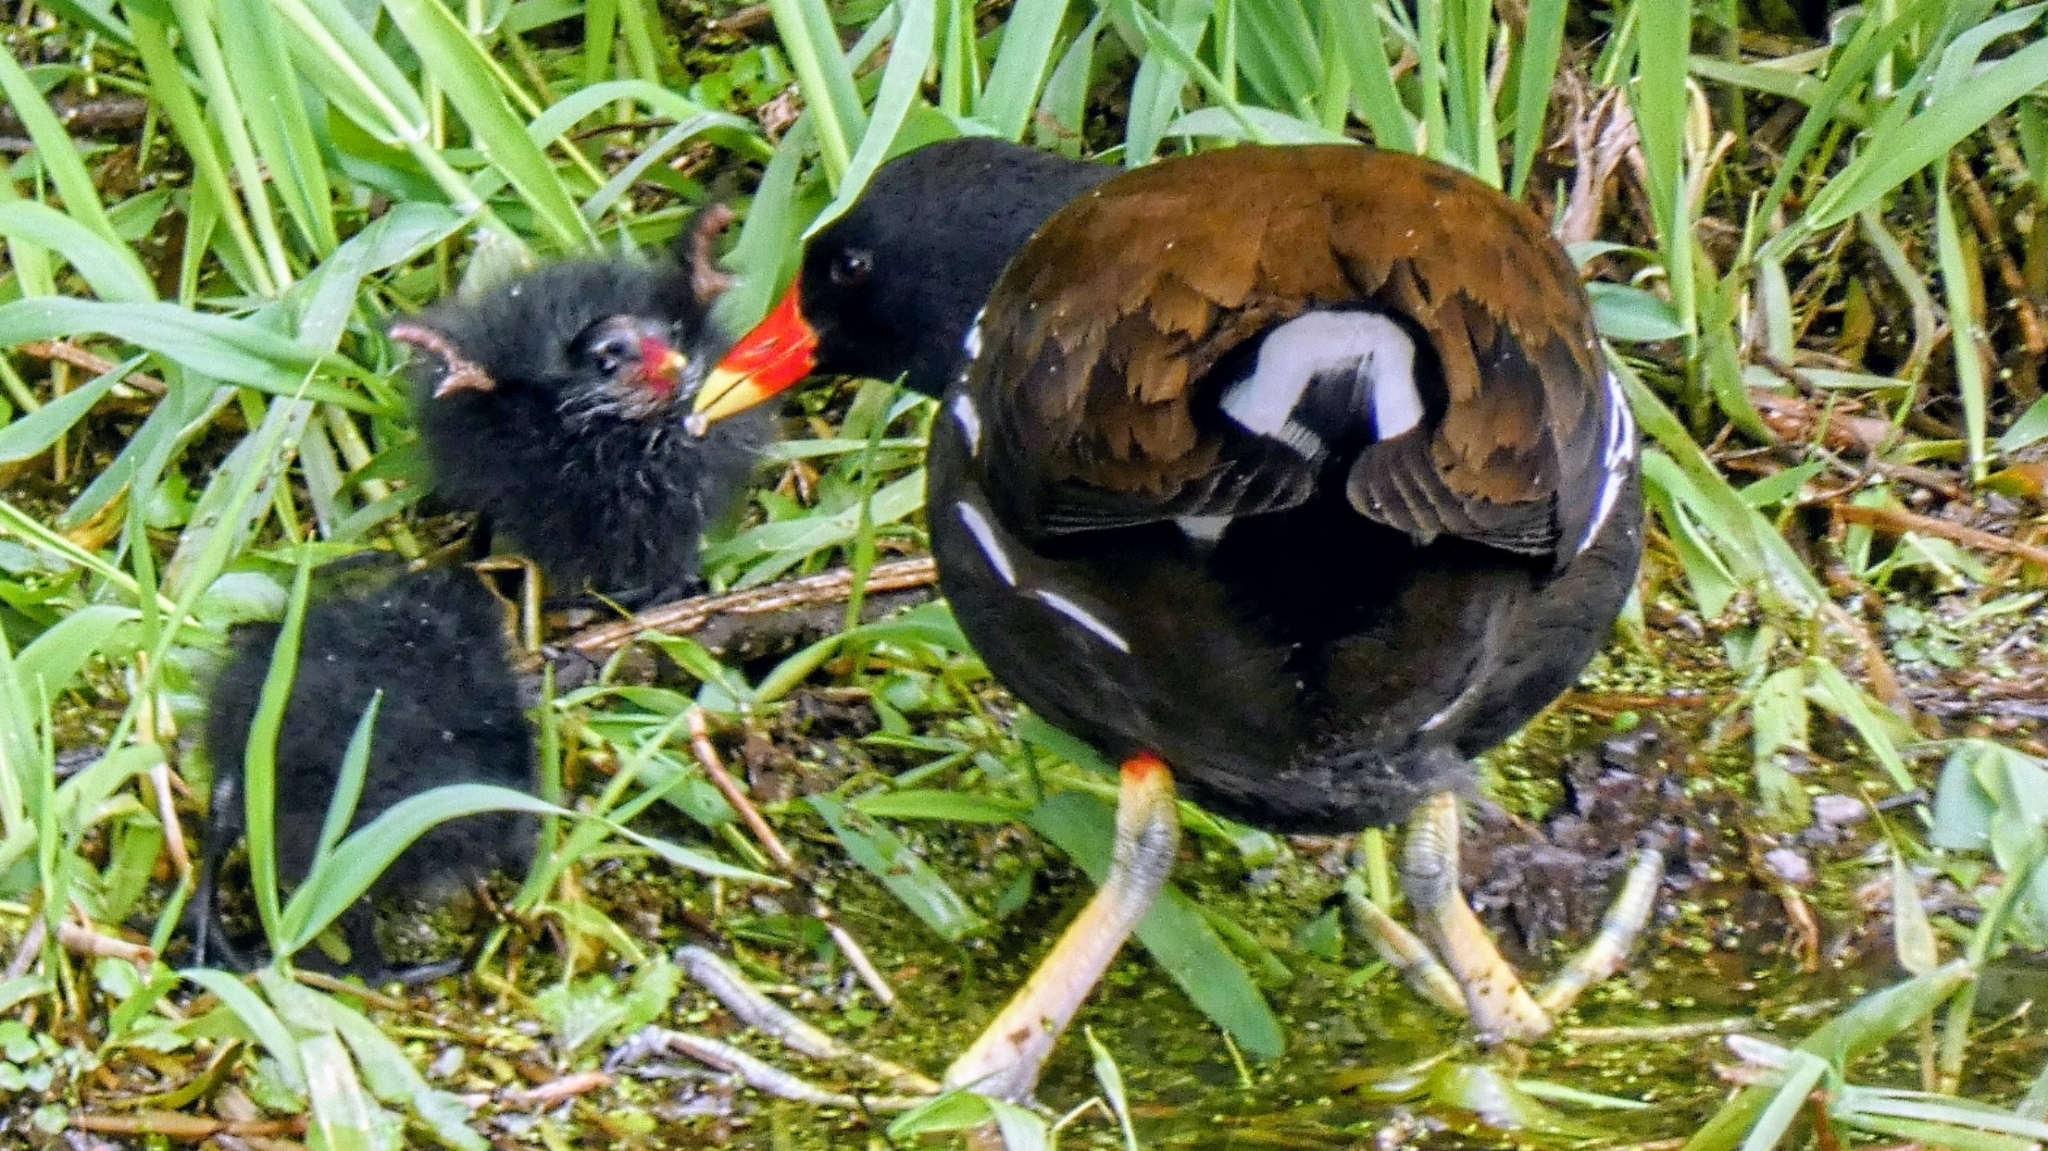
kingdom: Animalia
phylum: Chordata
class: Aves
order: Gruiformes
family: Rallidae
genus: Gallinula
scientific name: Gallinula chloropus
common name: Common moorhen
